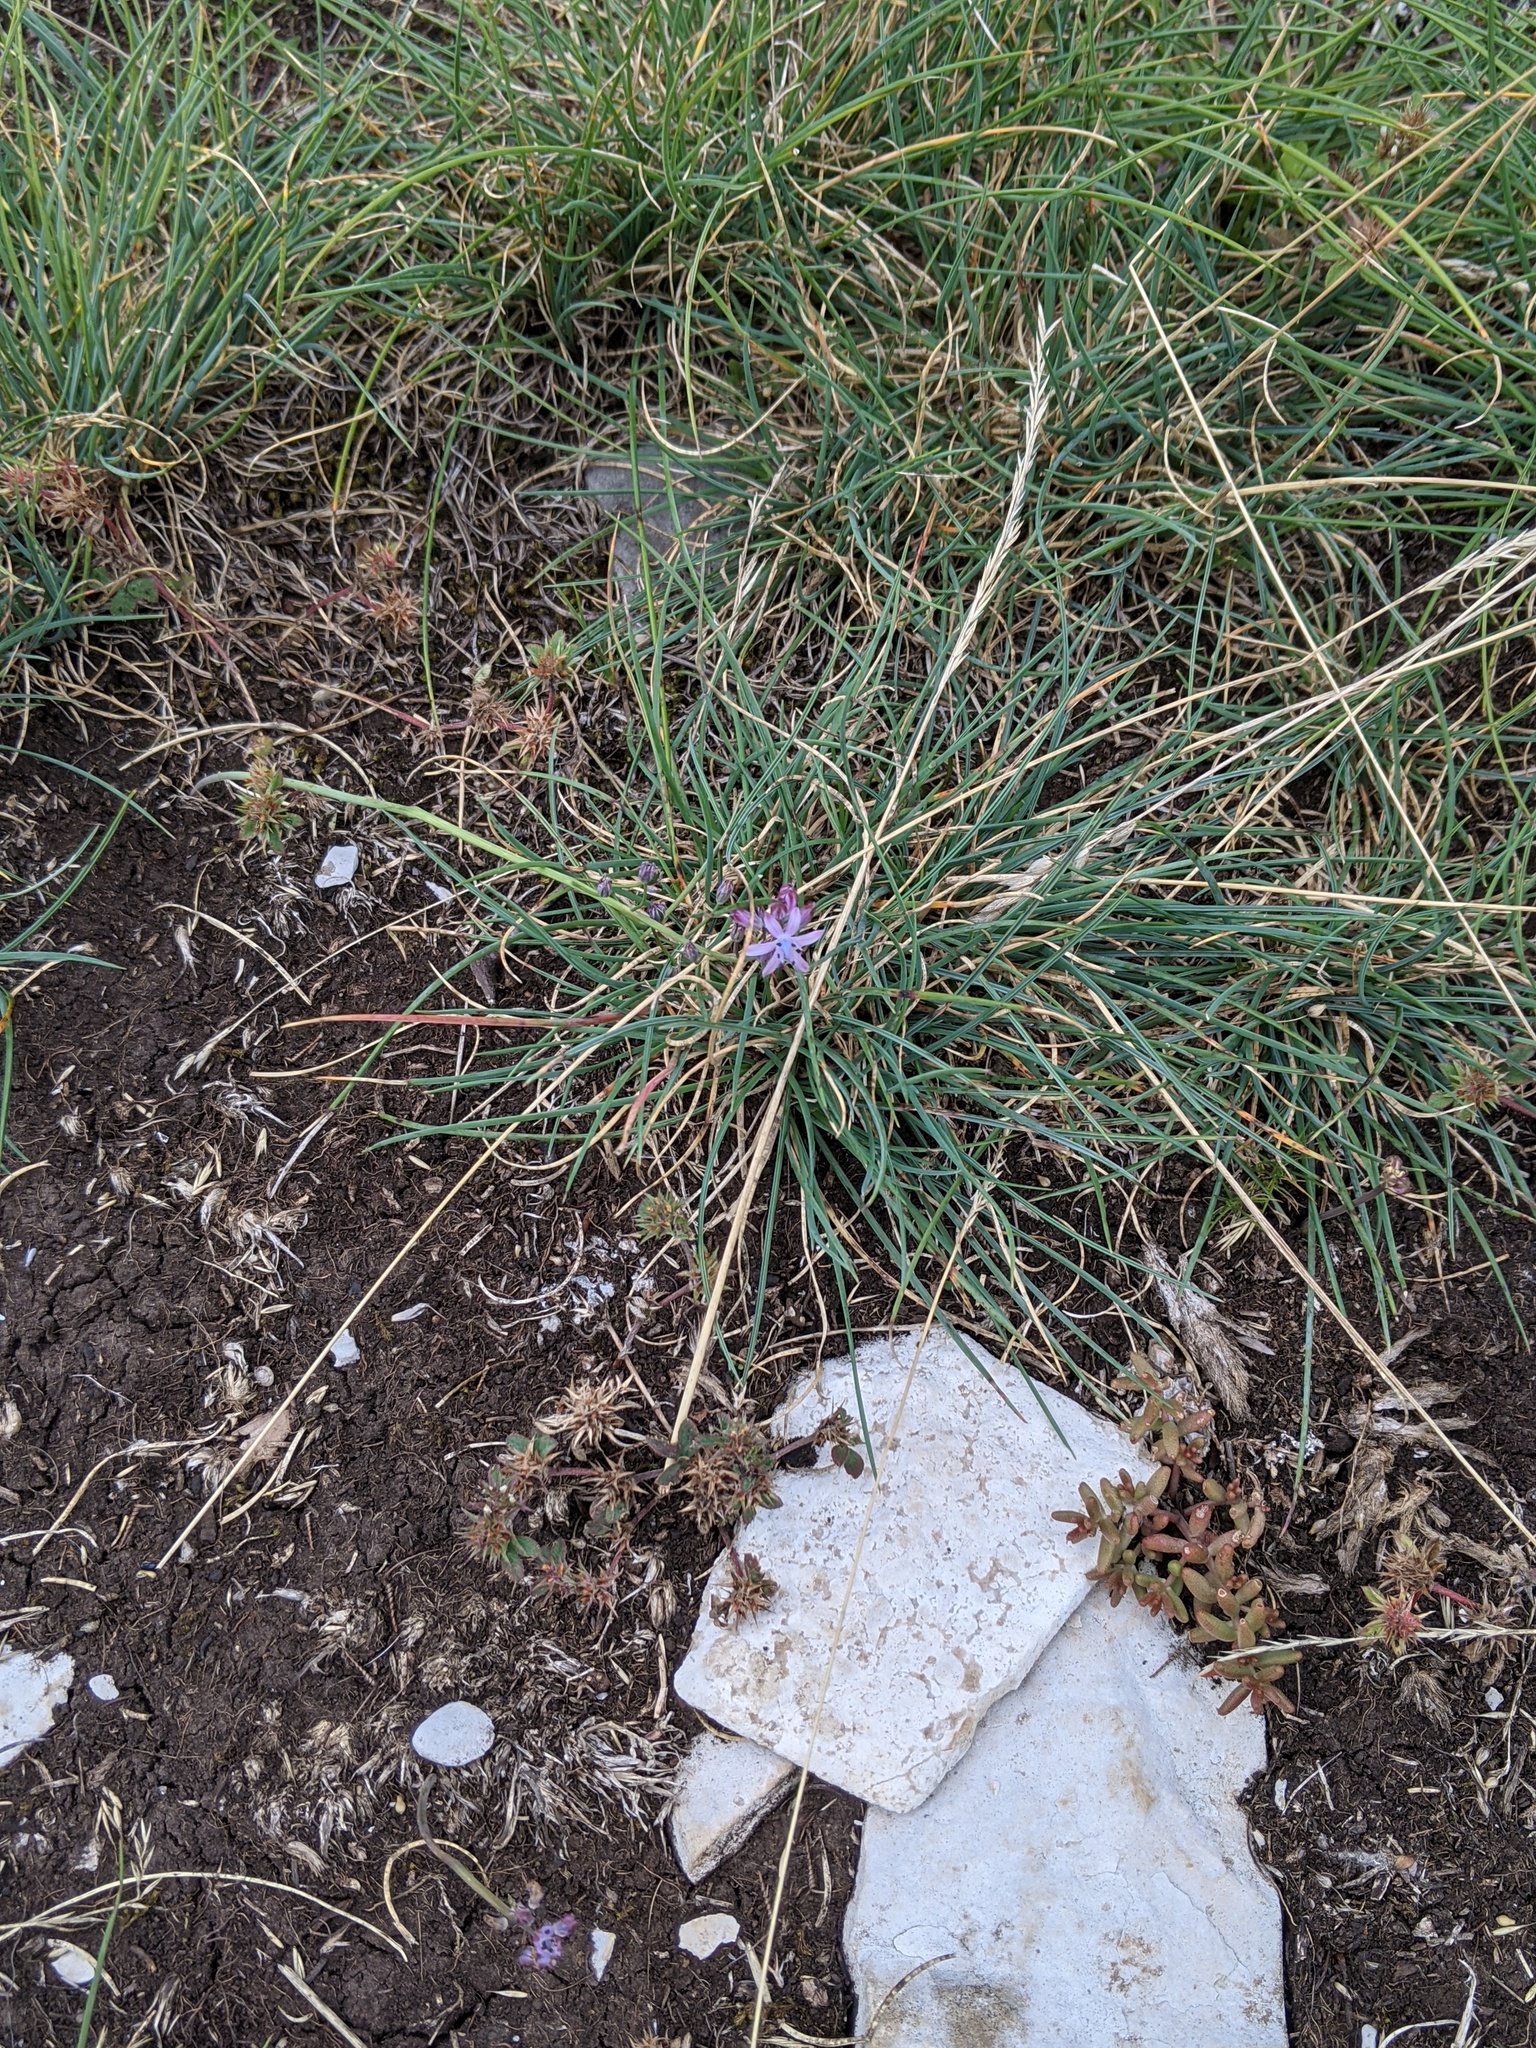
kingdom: Plantae
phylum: Tracheophyta
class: Liliopsida
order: Asparagales
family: Asparagaceae
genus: Prospero
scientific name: Prospero autumnale
